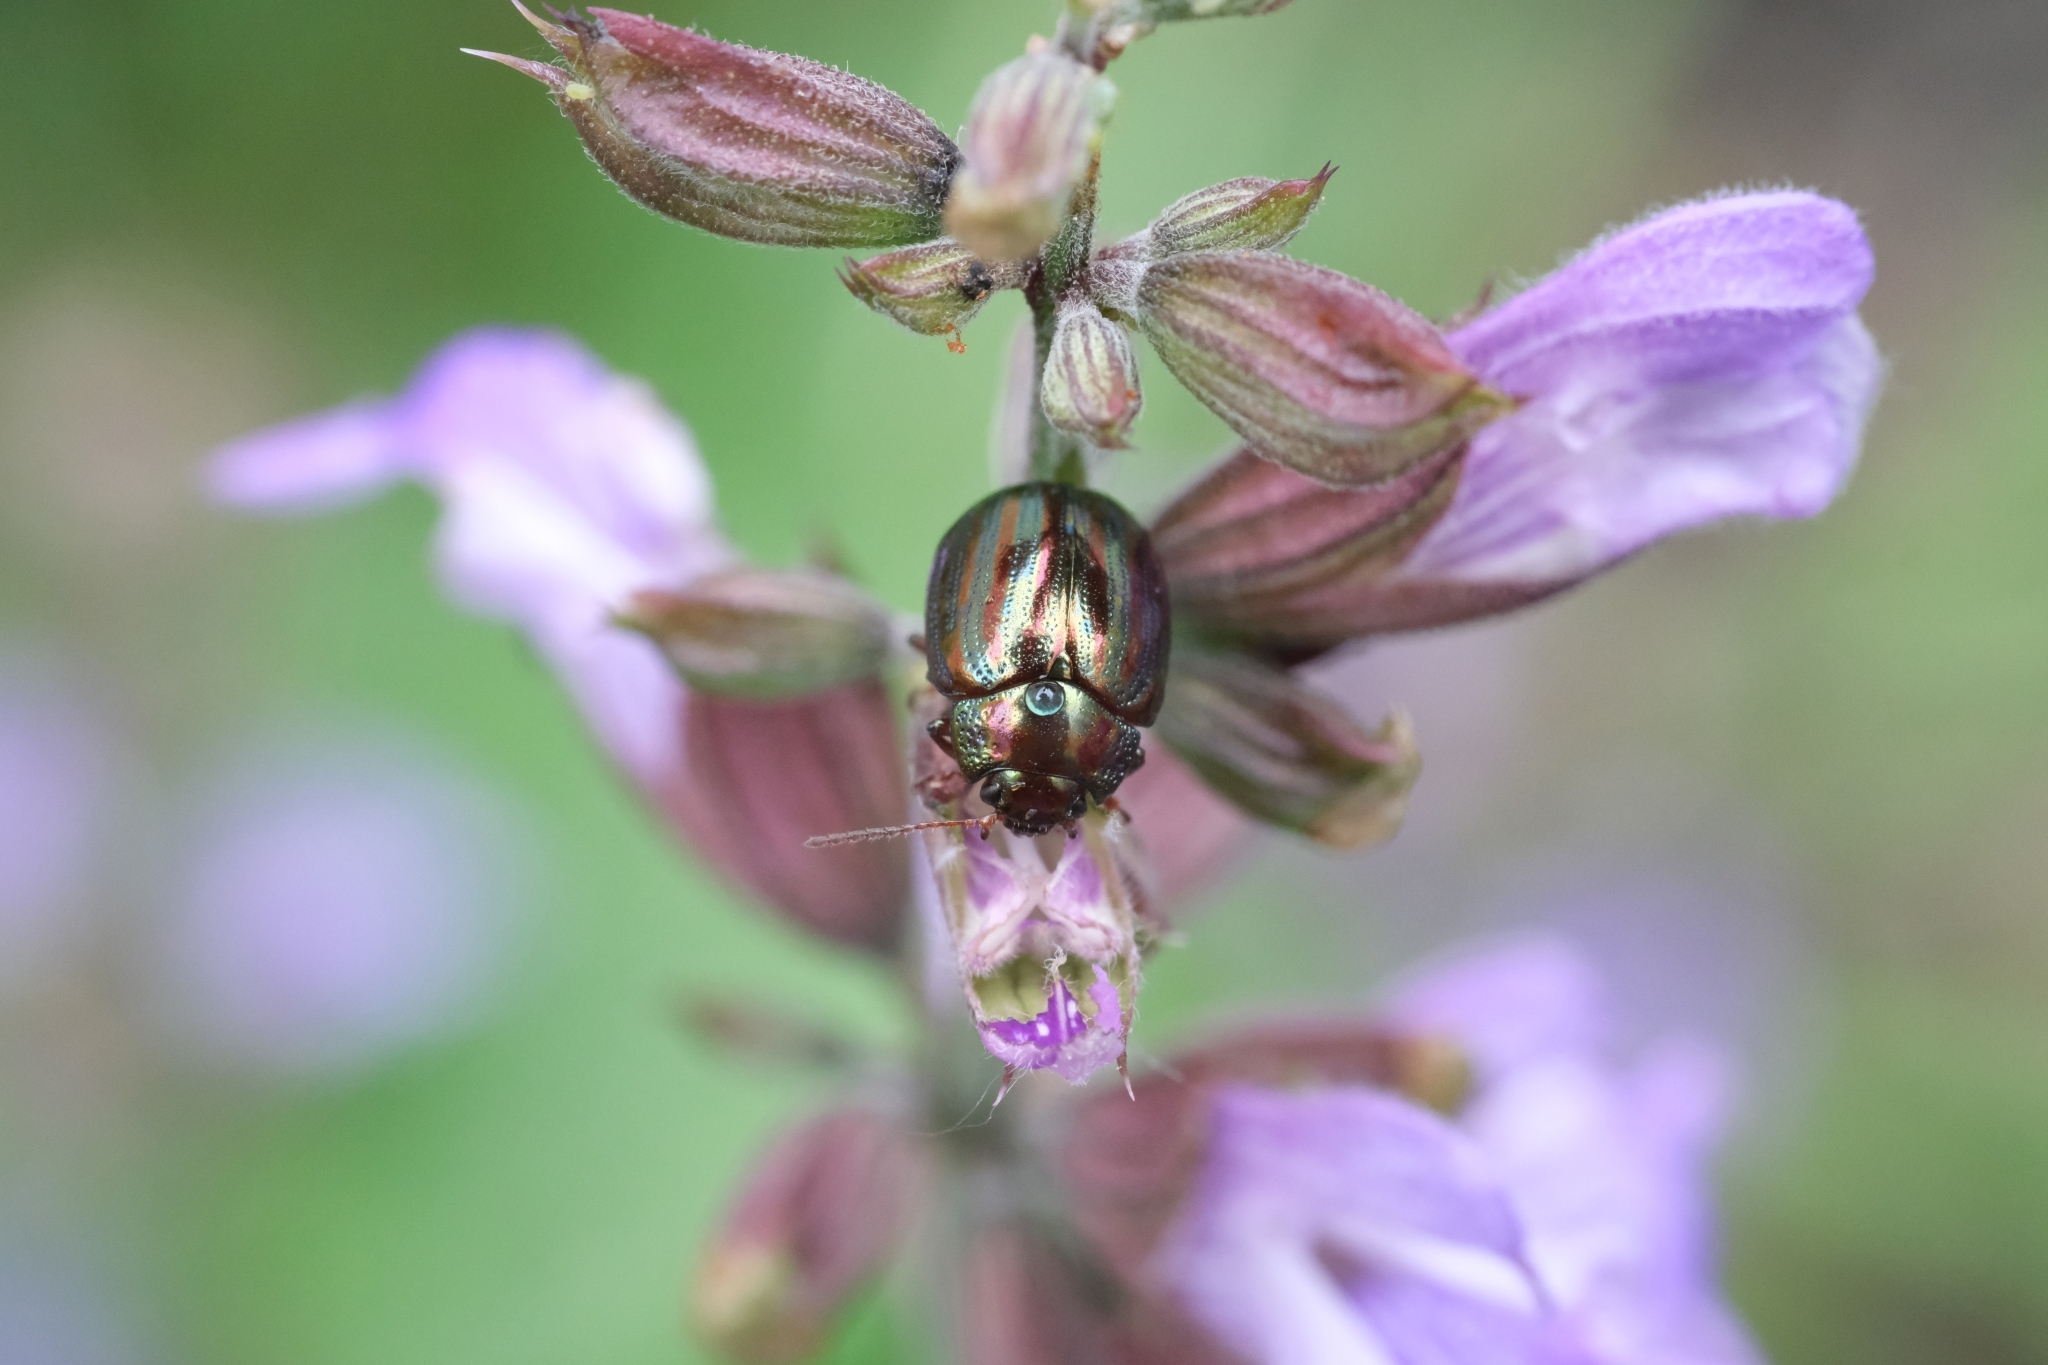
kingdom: Animalia
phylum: Arthropoda
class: Insecta
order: Coleoptera
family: Chrysomelidae
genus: Chrysolina
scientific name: Chrysolina americana
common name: Rosemary beetle
